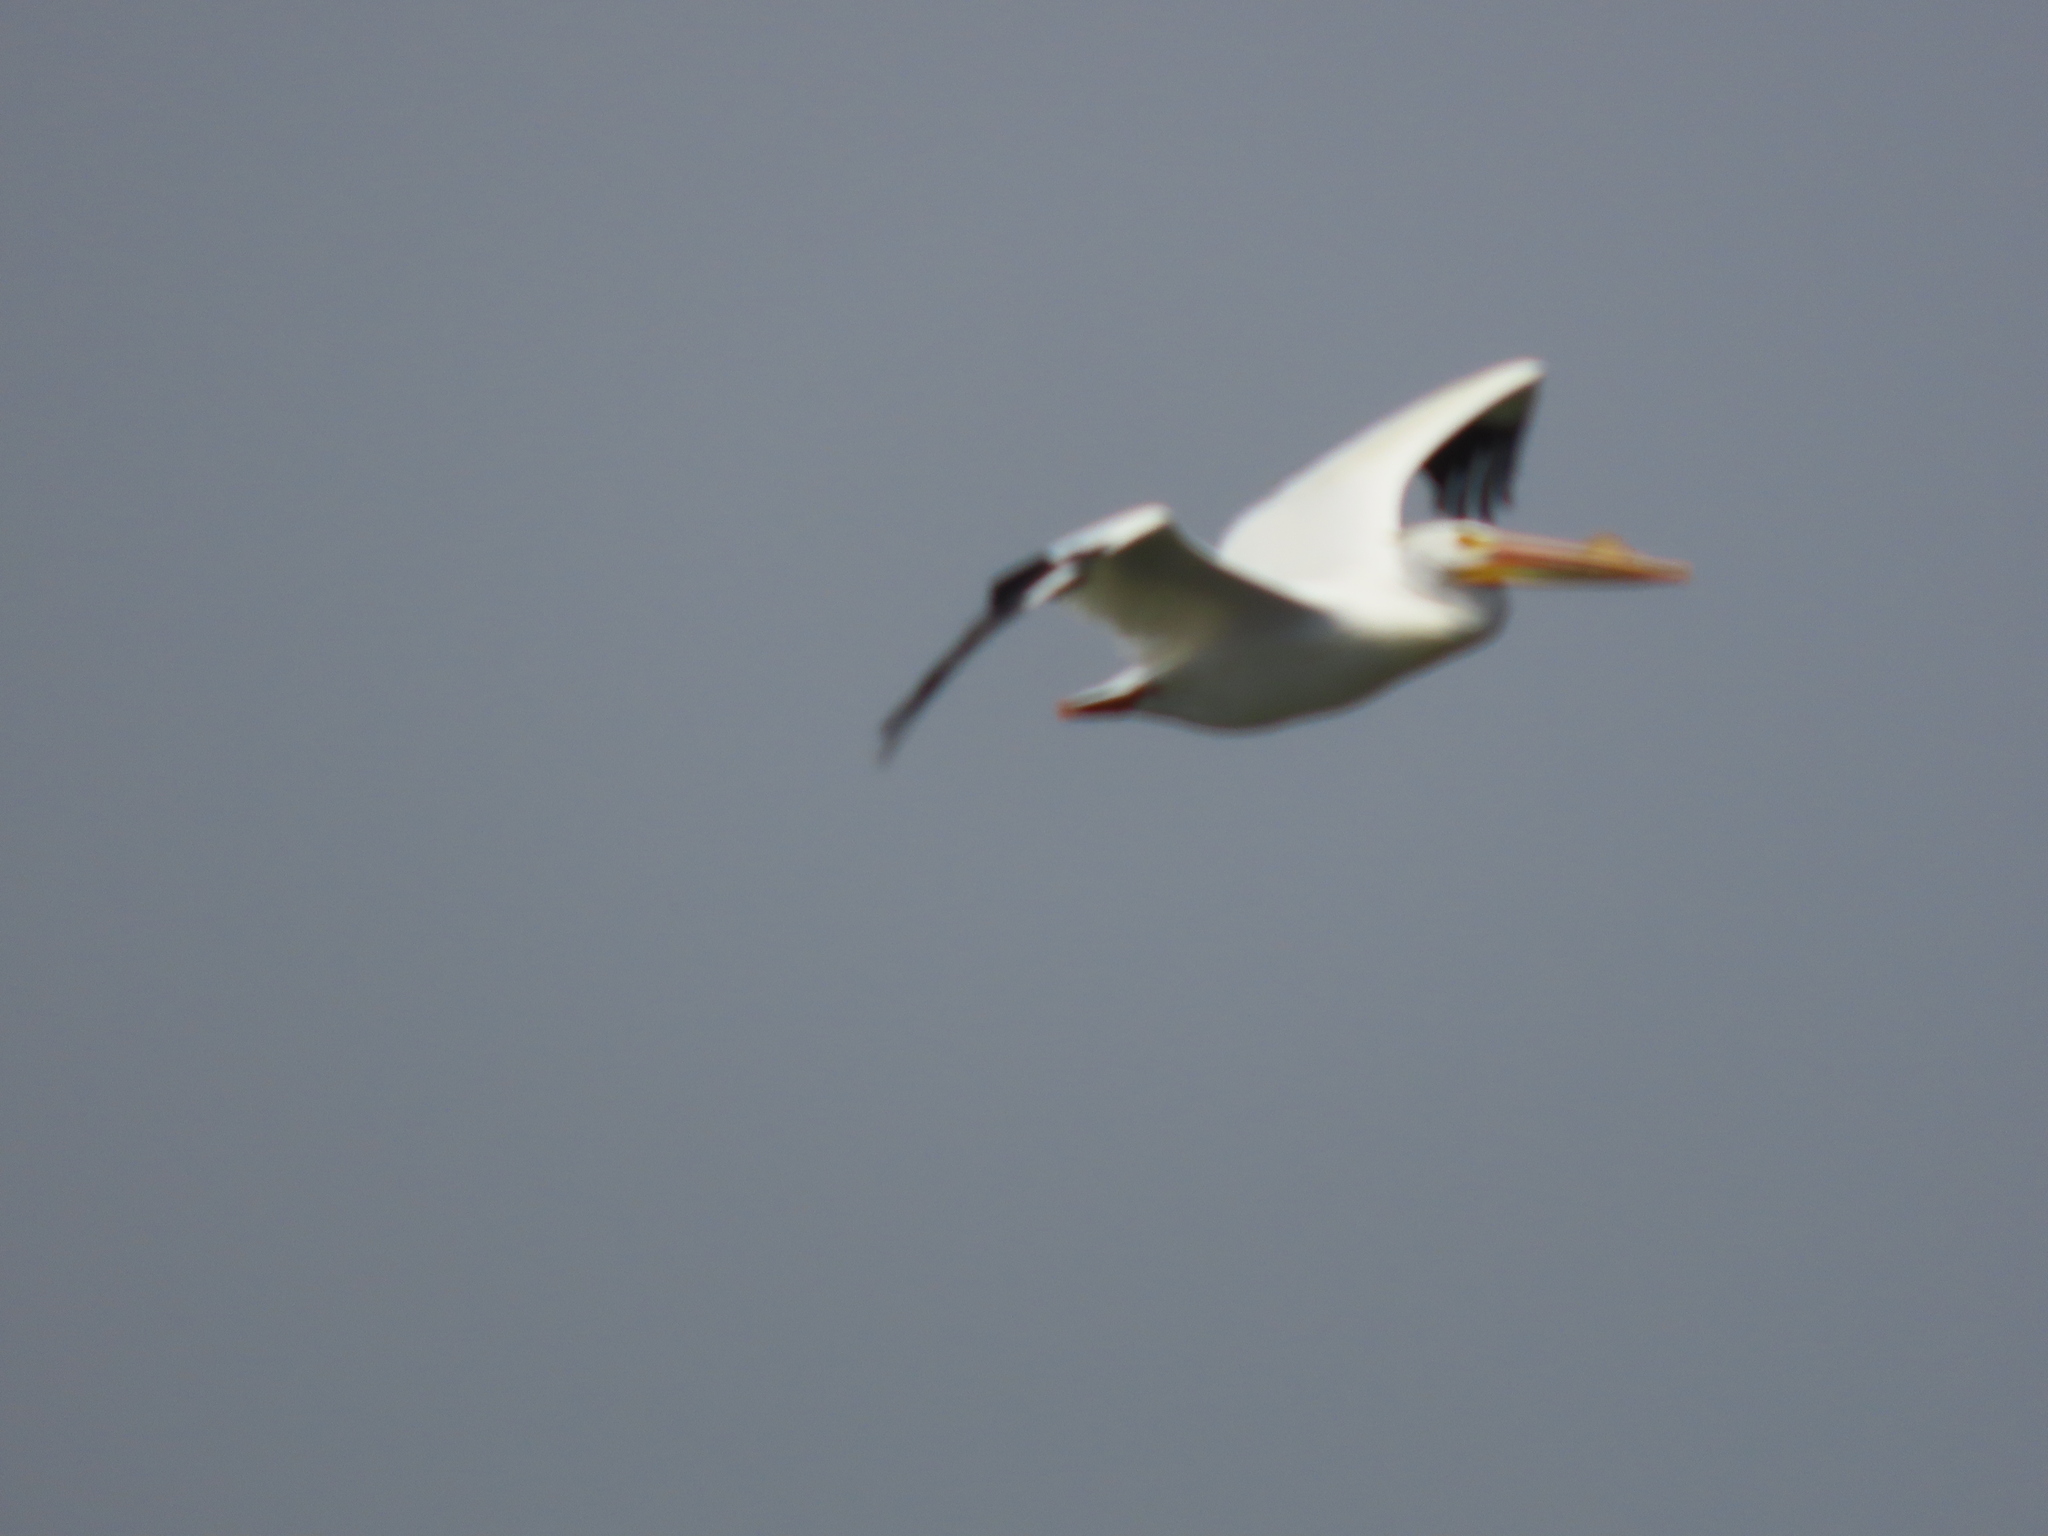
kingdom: Animalia
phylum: Chordata
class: Aves
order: Pelecaniformes
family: Pelecanidae
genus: Pelecanus
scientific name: Pelecanus erythrorhynchos
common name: American white pelican
